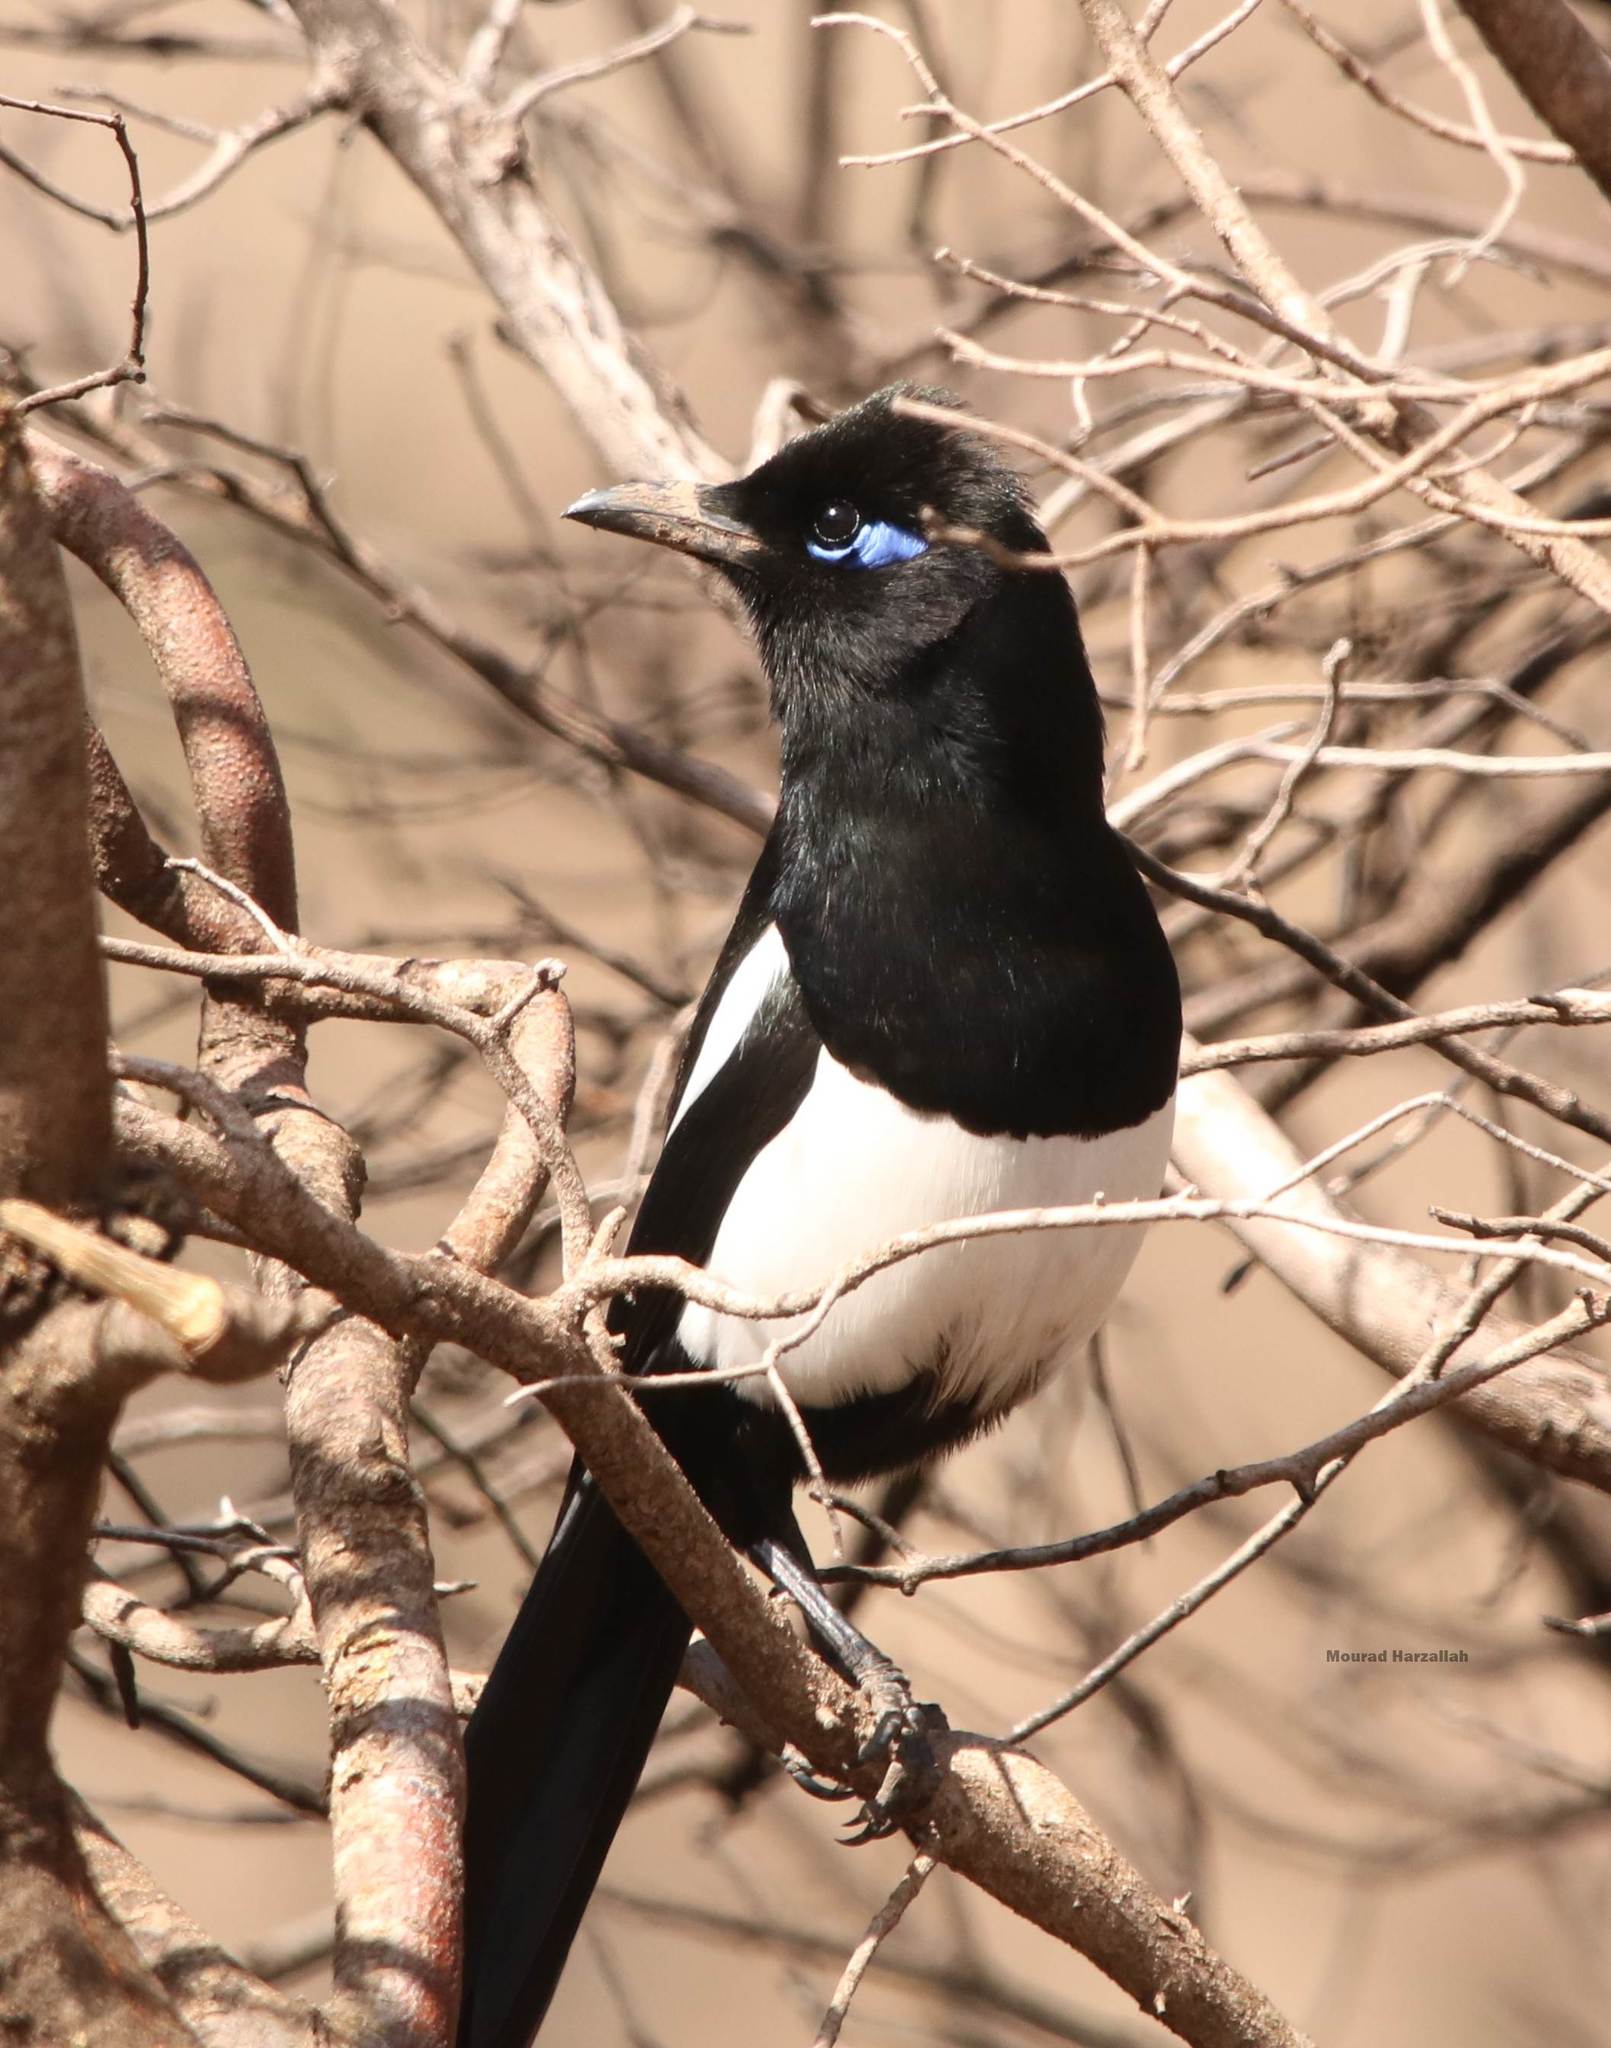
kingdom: Animalia
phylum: Chordata
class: Aves
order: Passeriformes
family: Corvidae
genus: Pica
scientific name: Pica mauritanica
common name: Maghreb magpie
